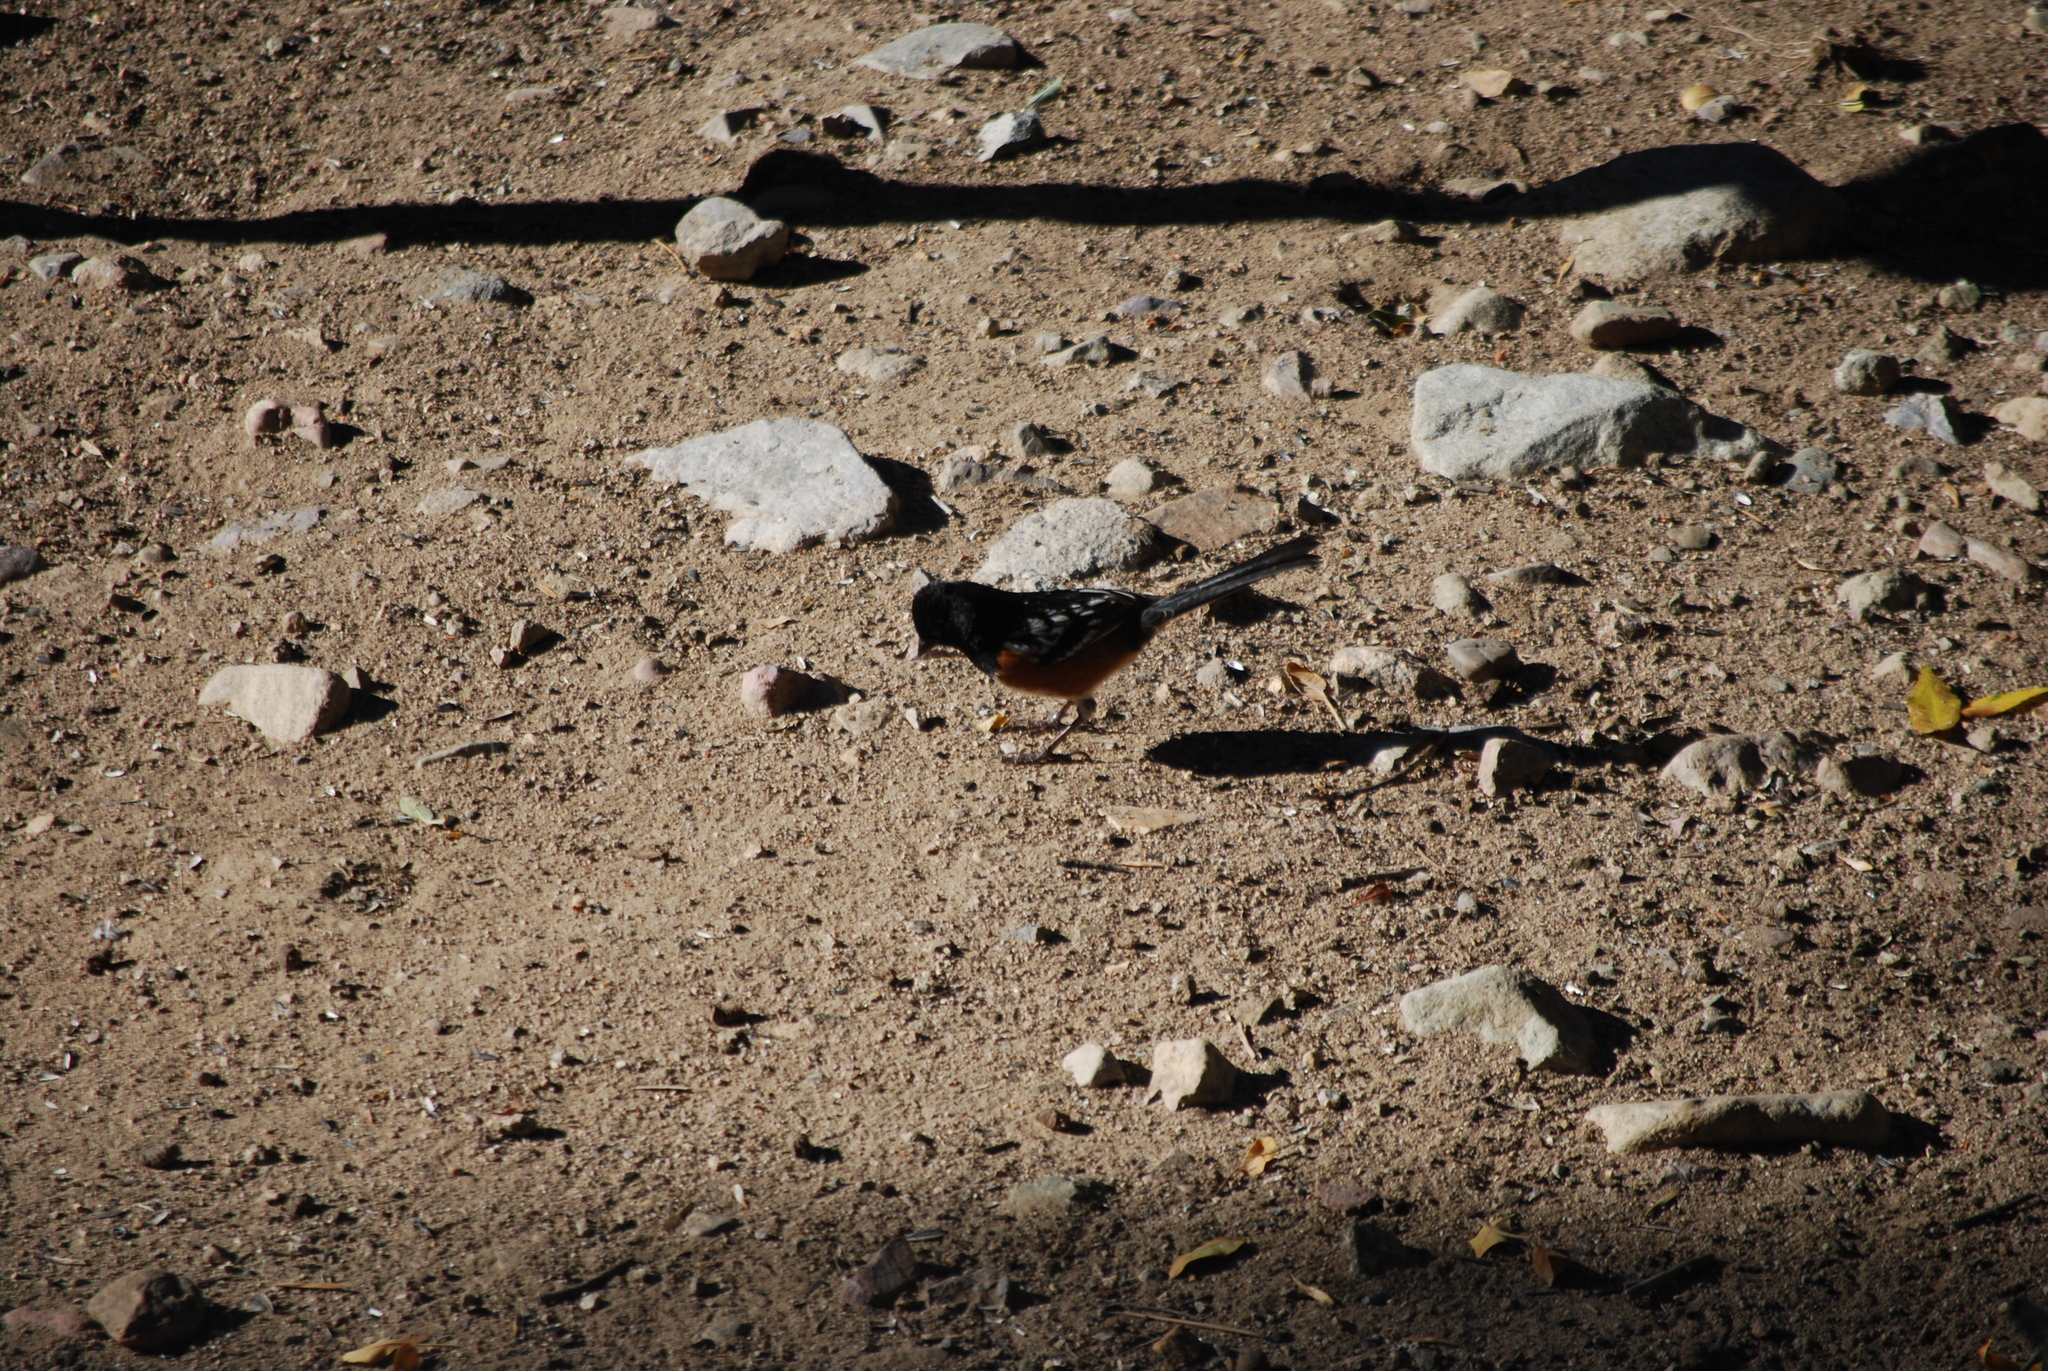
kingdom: Animalia
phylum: Chordata
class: Aves
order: Passeriformes
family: Passerellidae
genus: Pipilo
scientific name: Pipilo maculatus
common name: Spotted towhee
